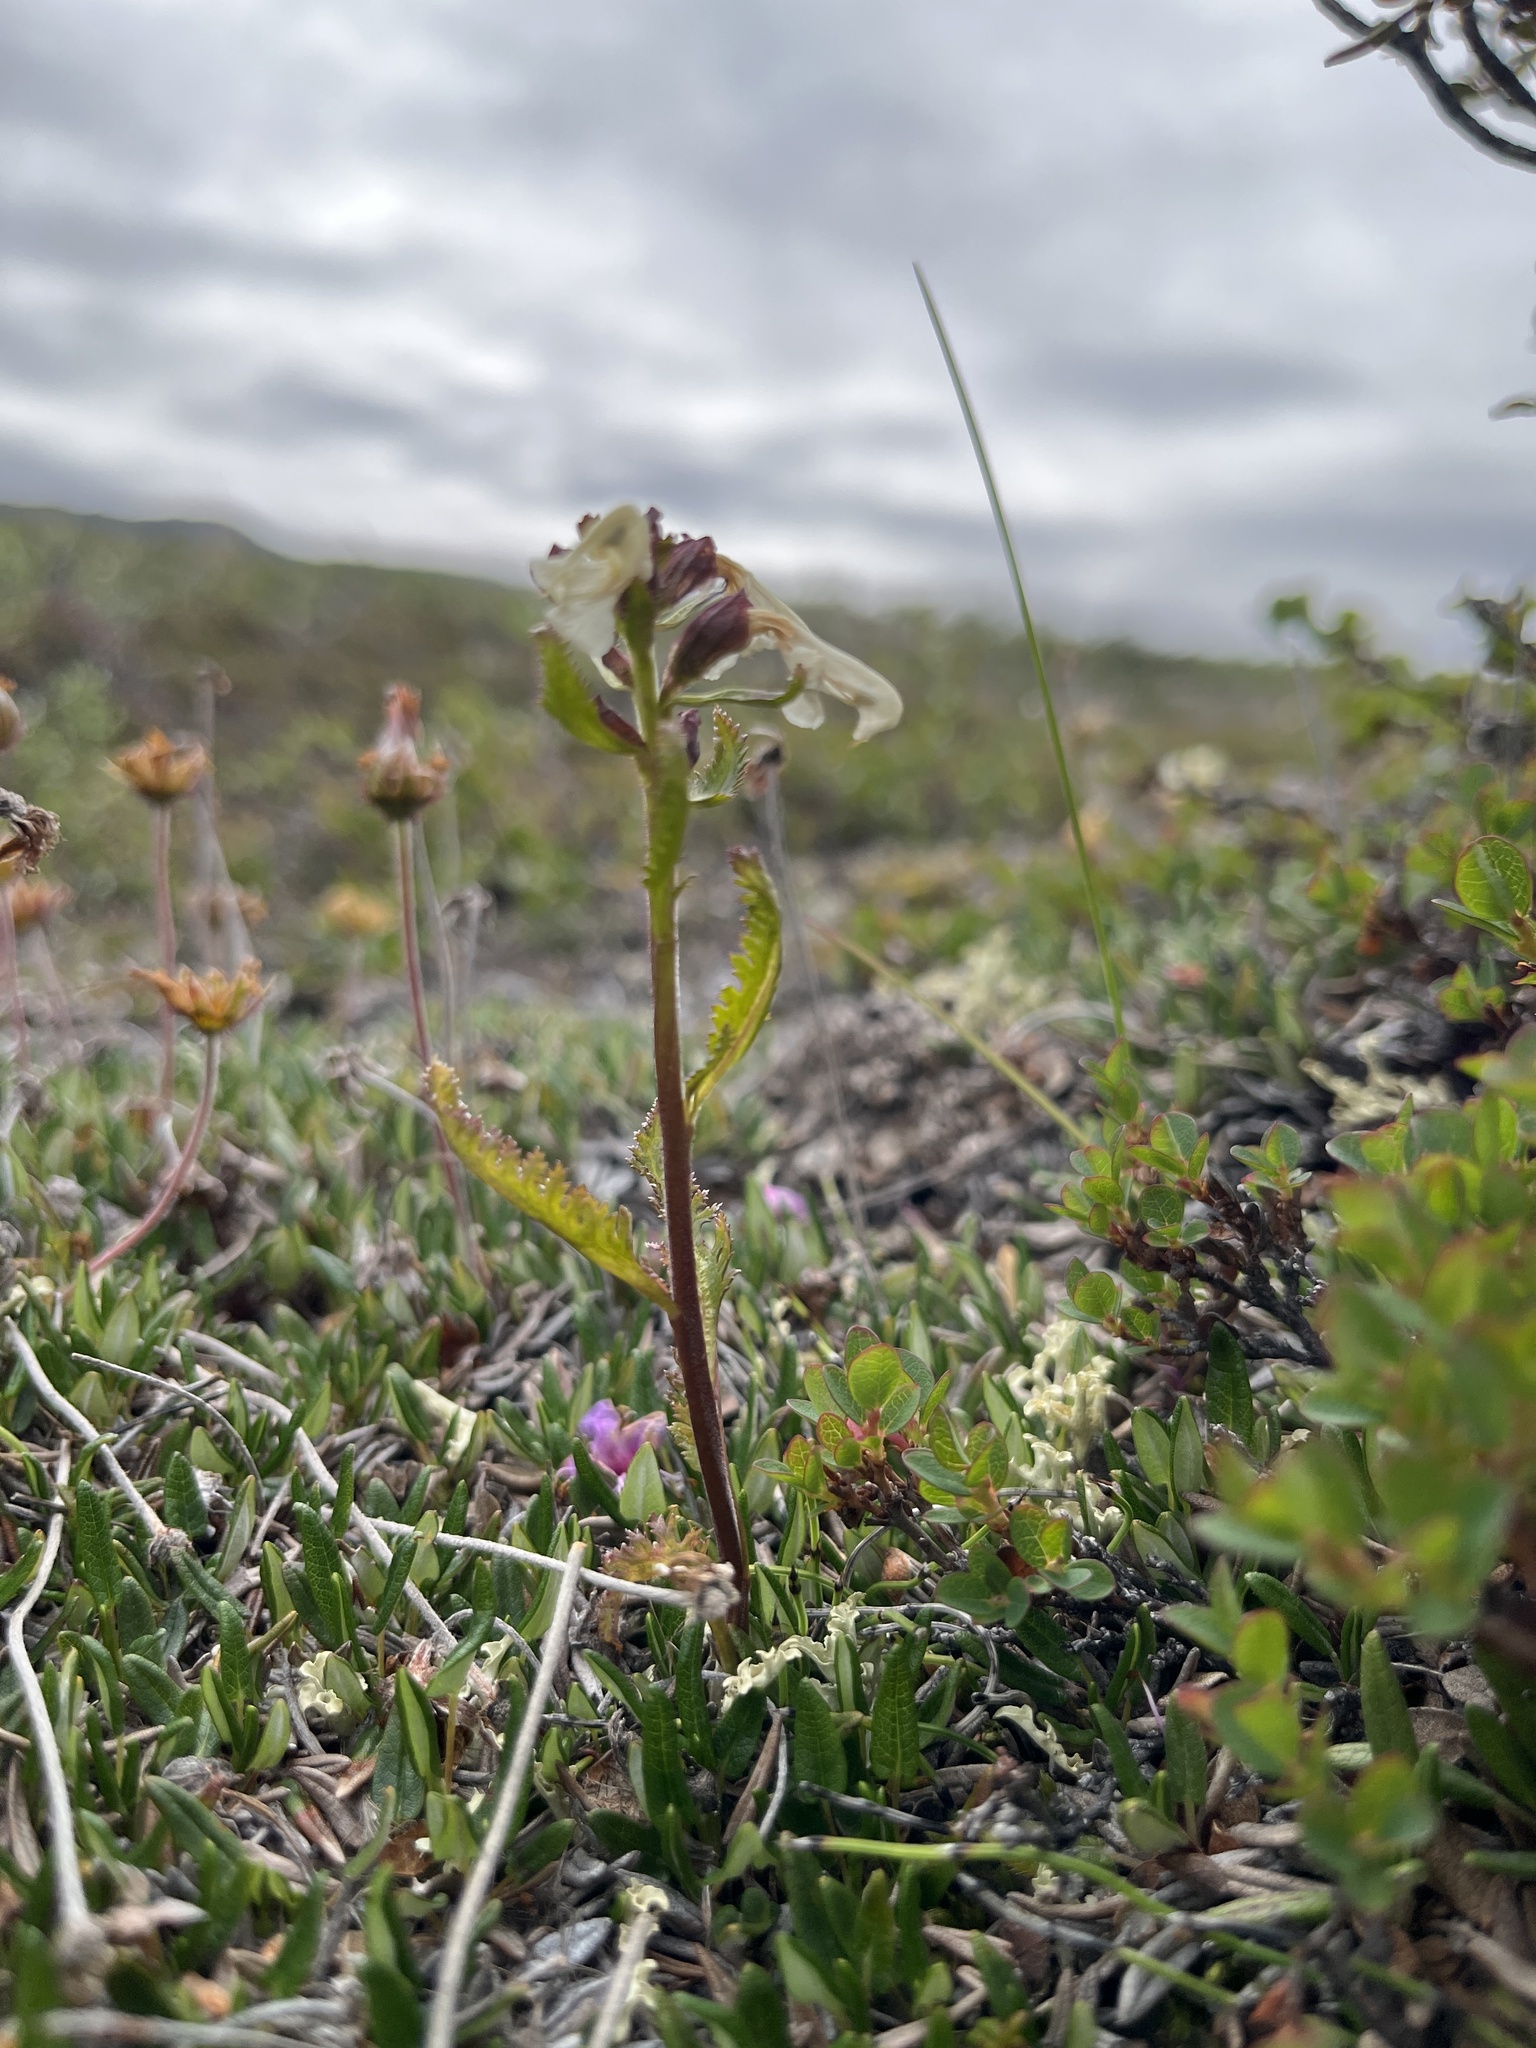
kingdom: Plantae
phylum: Tracheophyta
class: Magnoliopsida
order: Lamiales
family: Orobanchaceae
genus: Pedicularis
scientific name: Pedicularis lapponica
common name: Lapland lousewort
